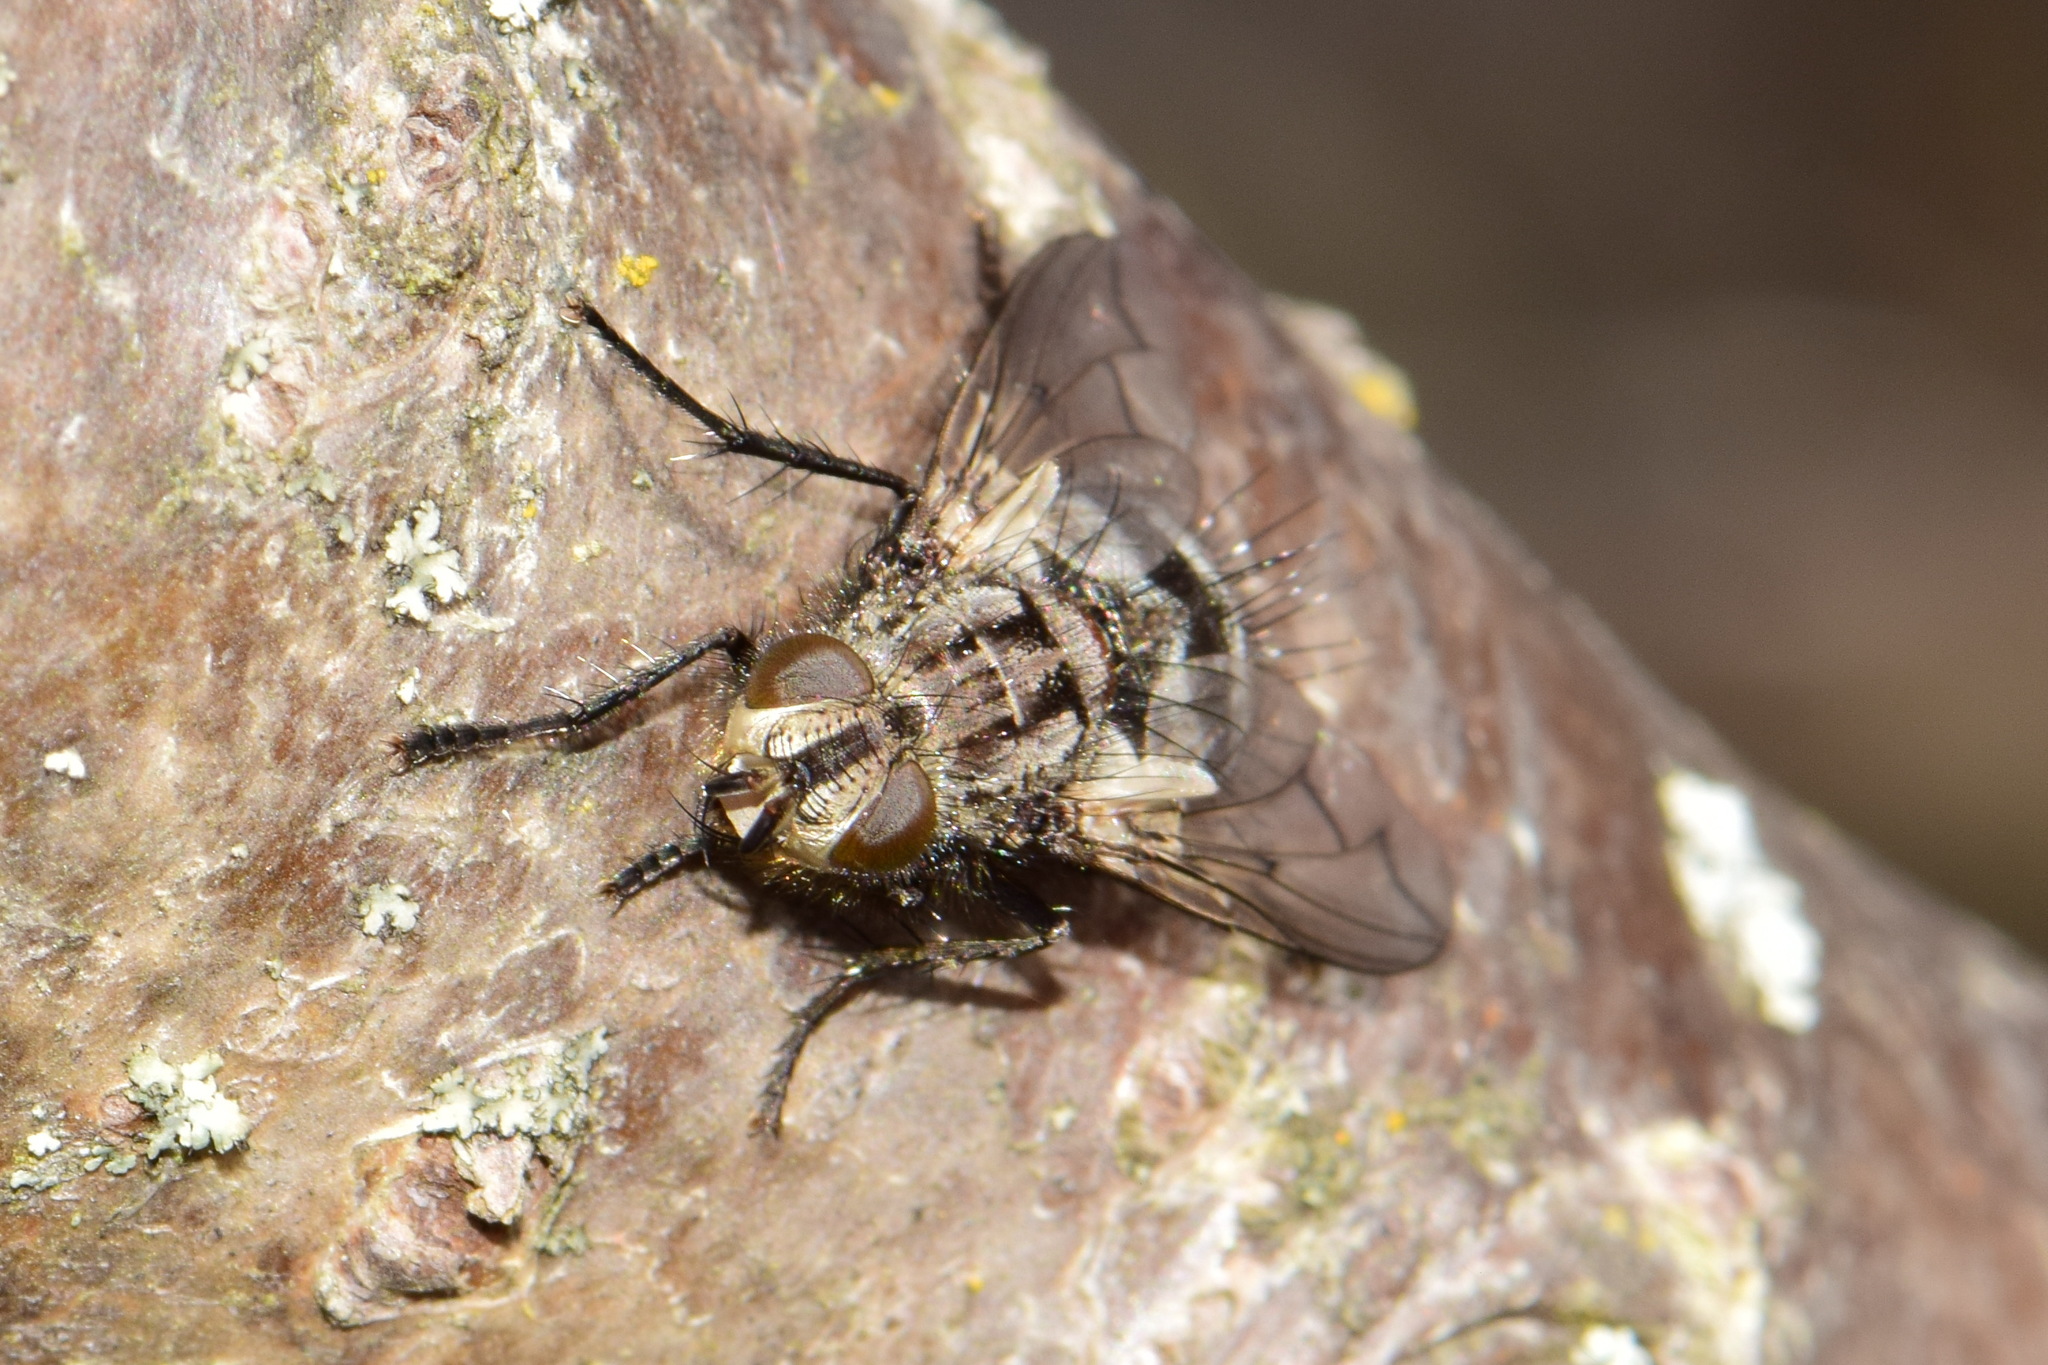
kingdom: Animalia
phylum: Arthropoda
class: Insecta
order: Diptera
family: Tachinidae
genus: Panzeria
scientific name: Panzeria puparum
